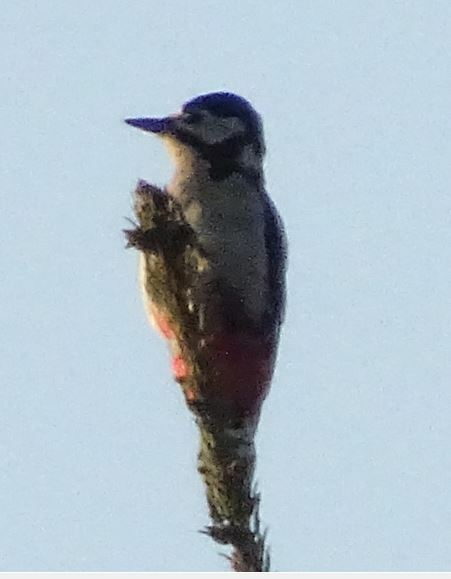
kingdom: Animalia
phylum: Chordata
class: Aves
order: Piciformes
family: Picidae
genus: Dendrocopos
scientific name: Dendrocopos major
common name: Great spotted woodpecker
